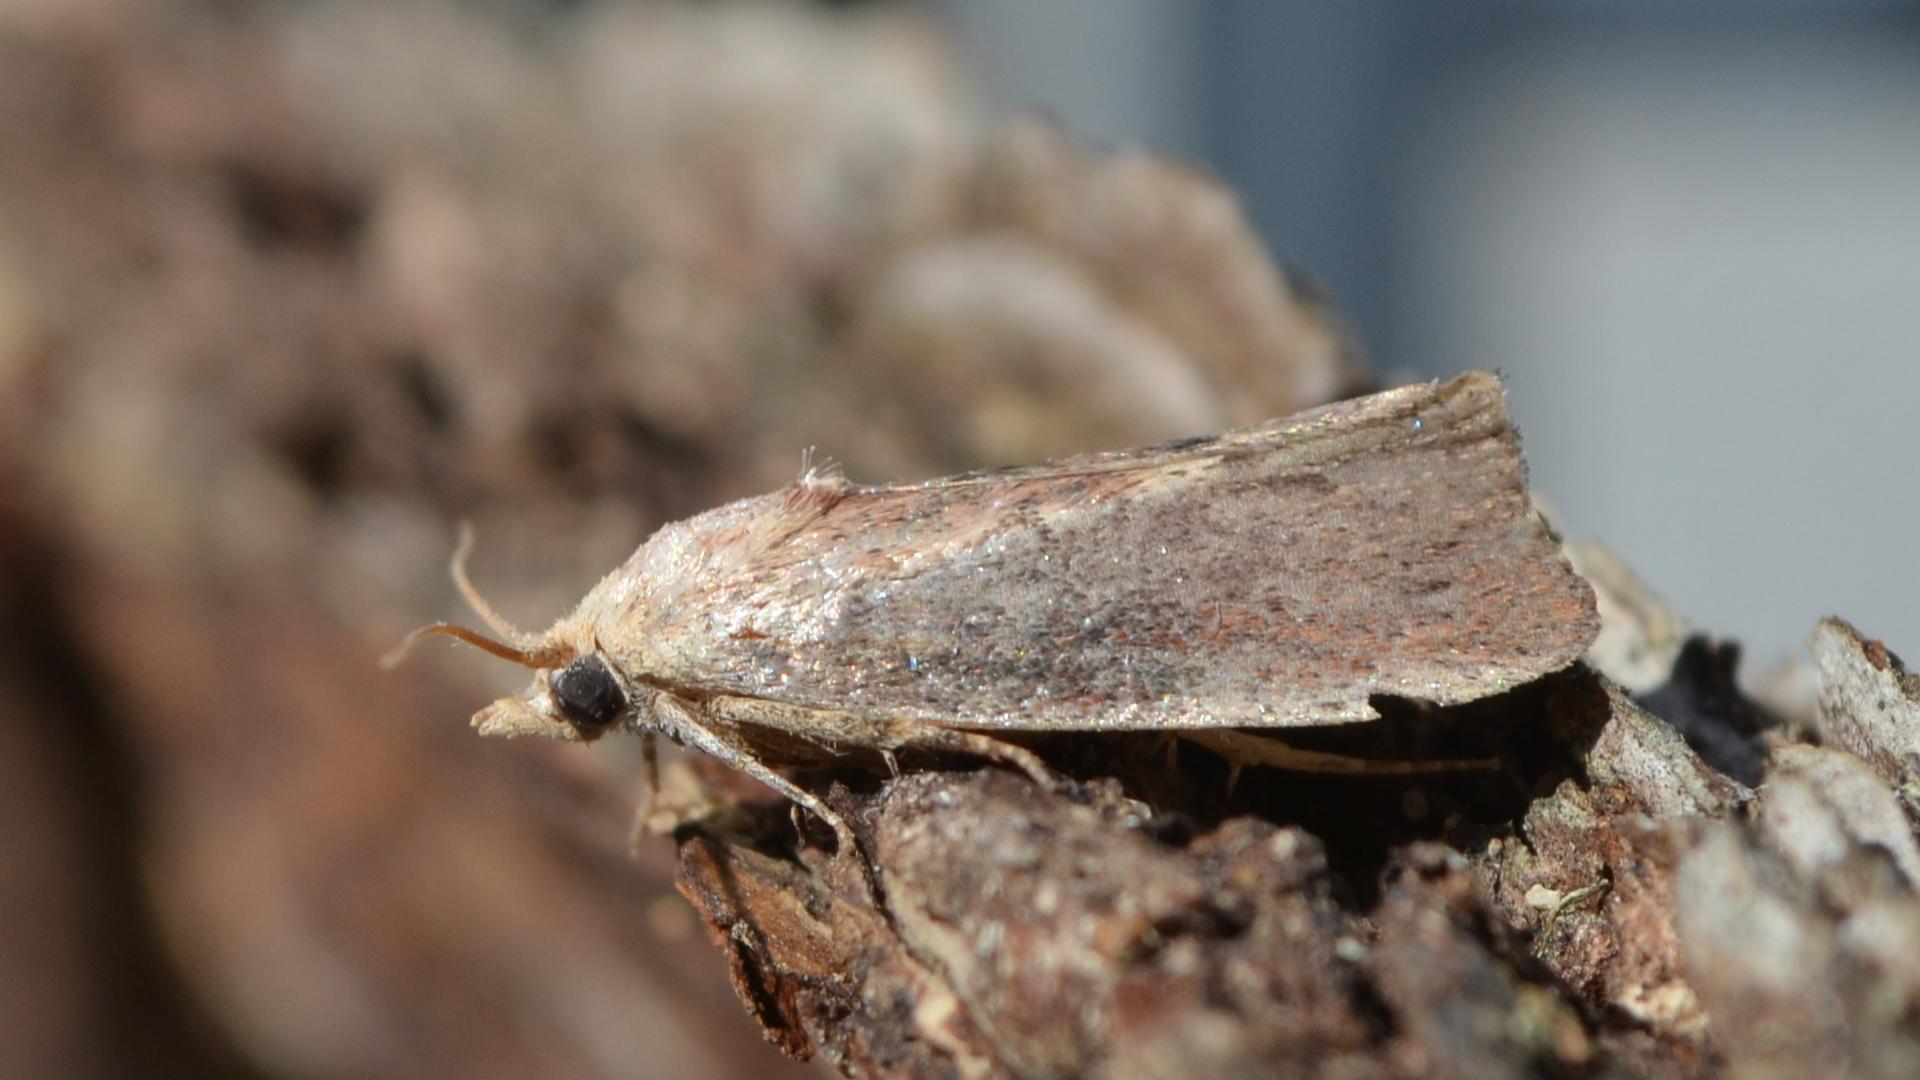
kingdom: Animalia
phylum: Arthropoda
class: Insecta
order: Lepidoptera
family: Pyralidae
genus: Galleria
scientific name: Galleria mellonella
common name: Greater wax moth
